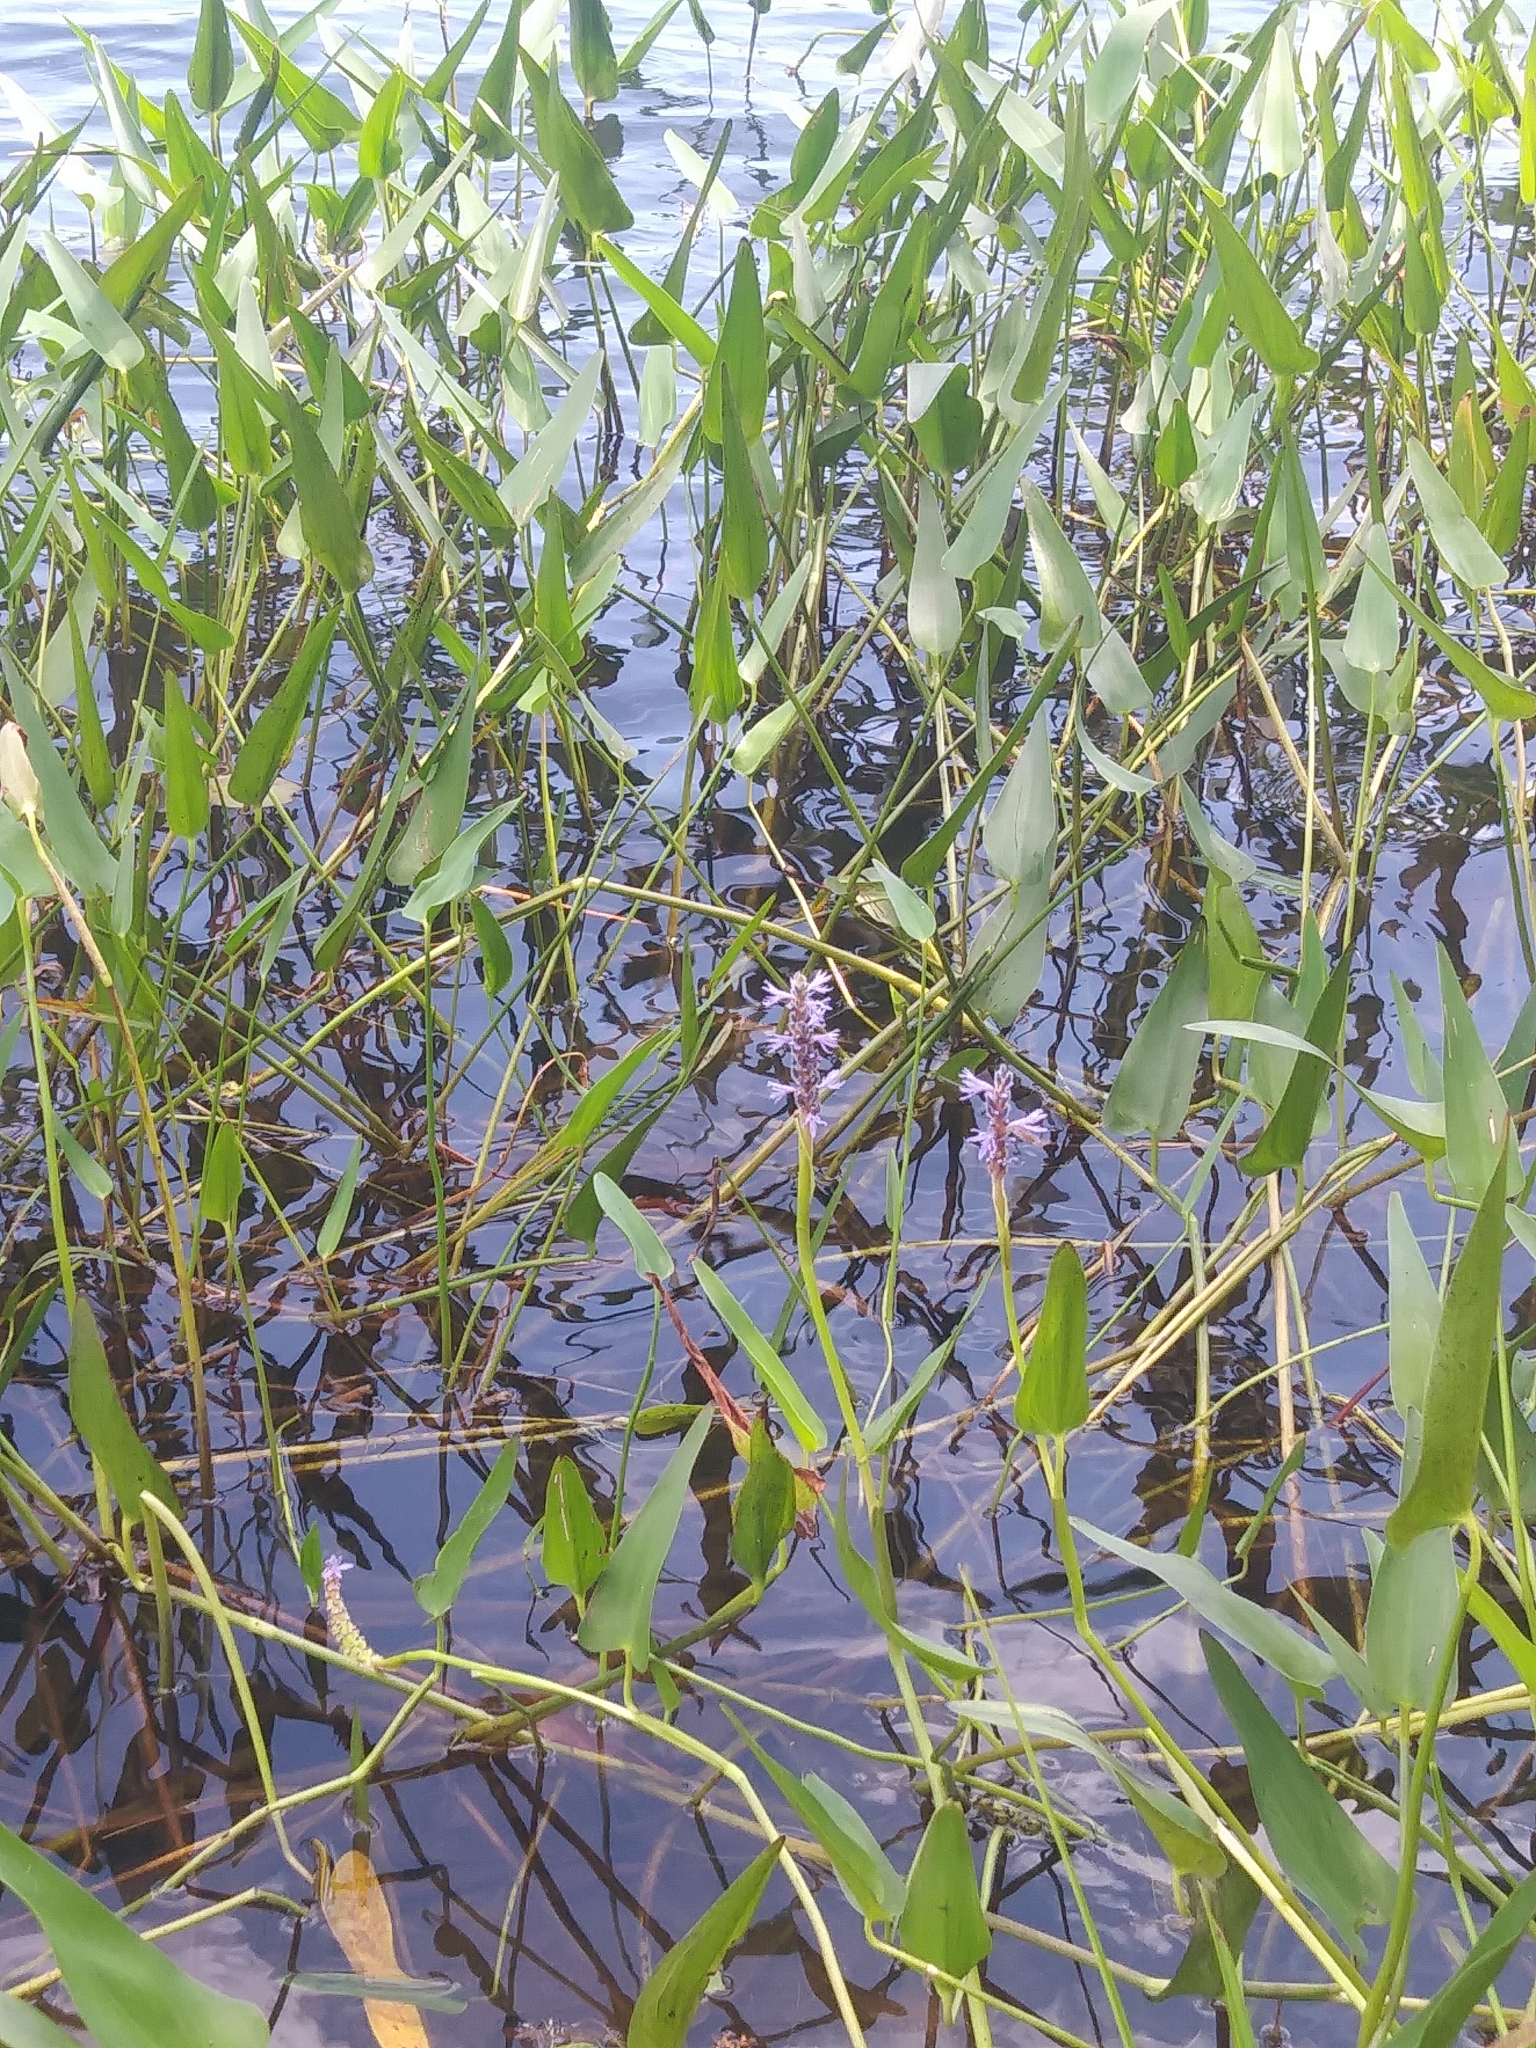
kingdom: Plantae
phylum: Tracheophyta
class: Liliopsida
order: Commelinales
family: Pontederiaceae
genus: Pontederia
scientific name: Pontederia cordata
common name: Pickerelweed
